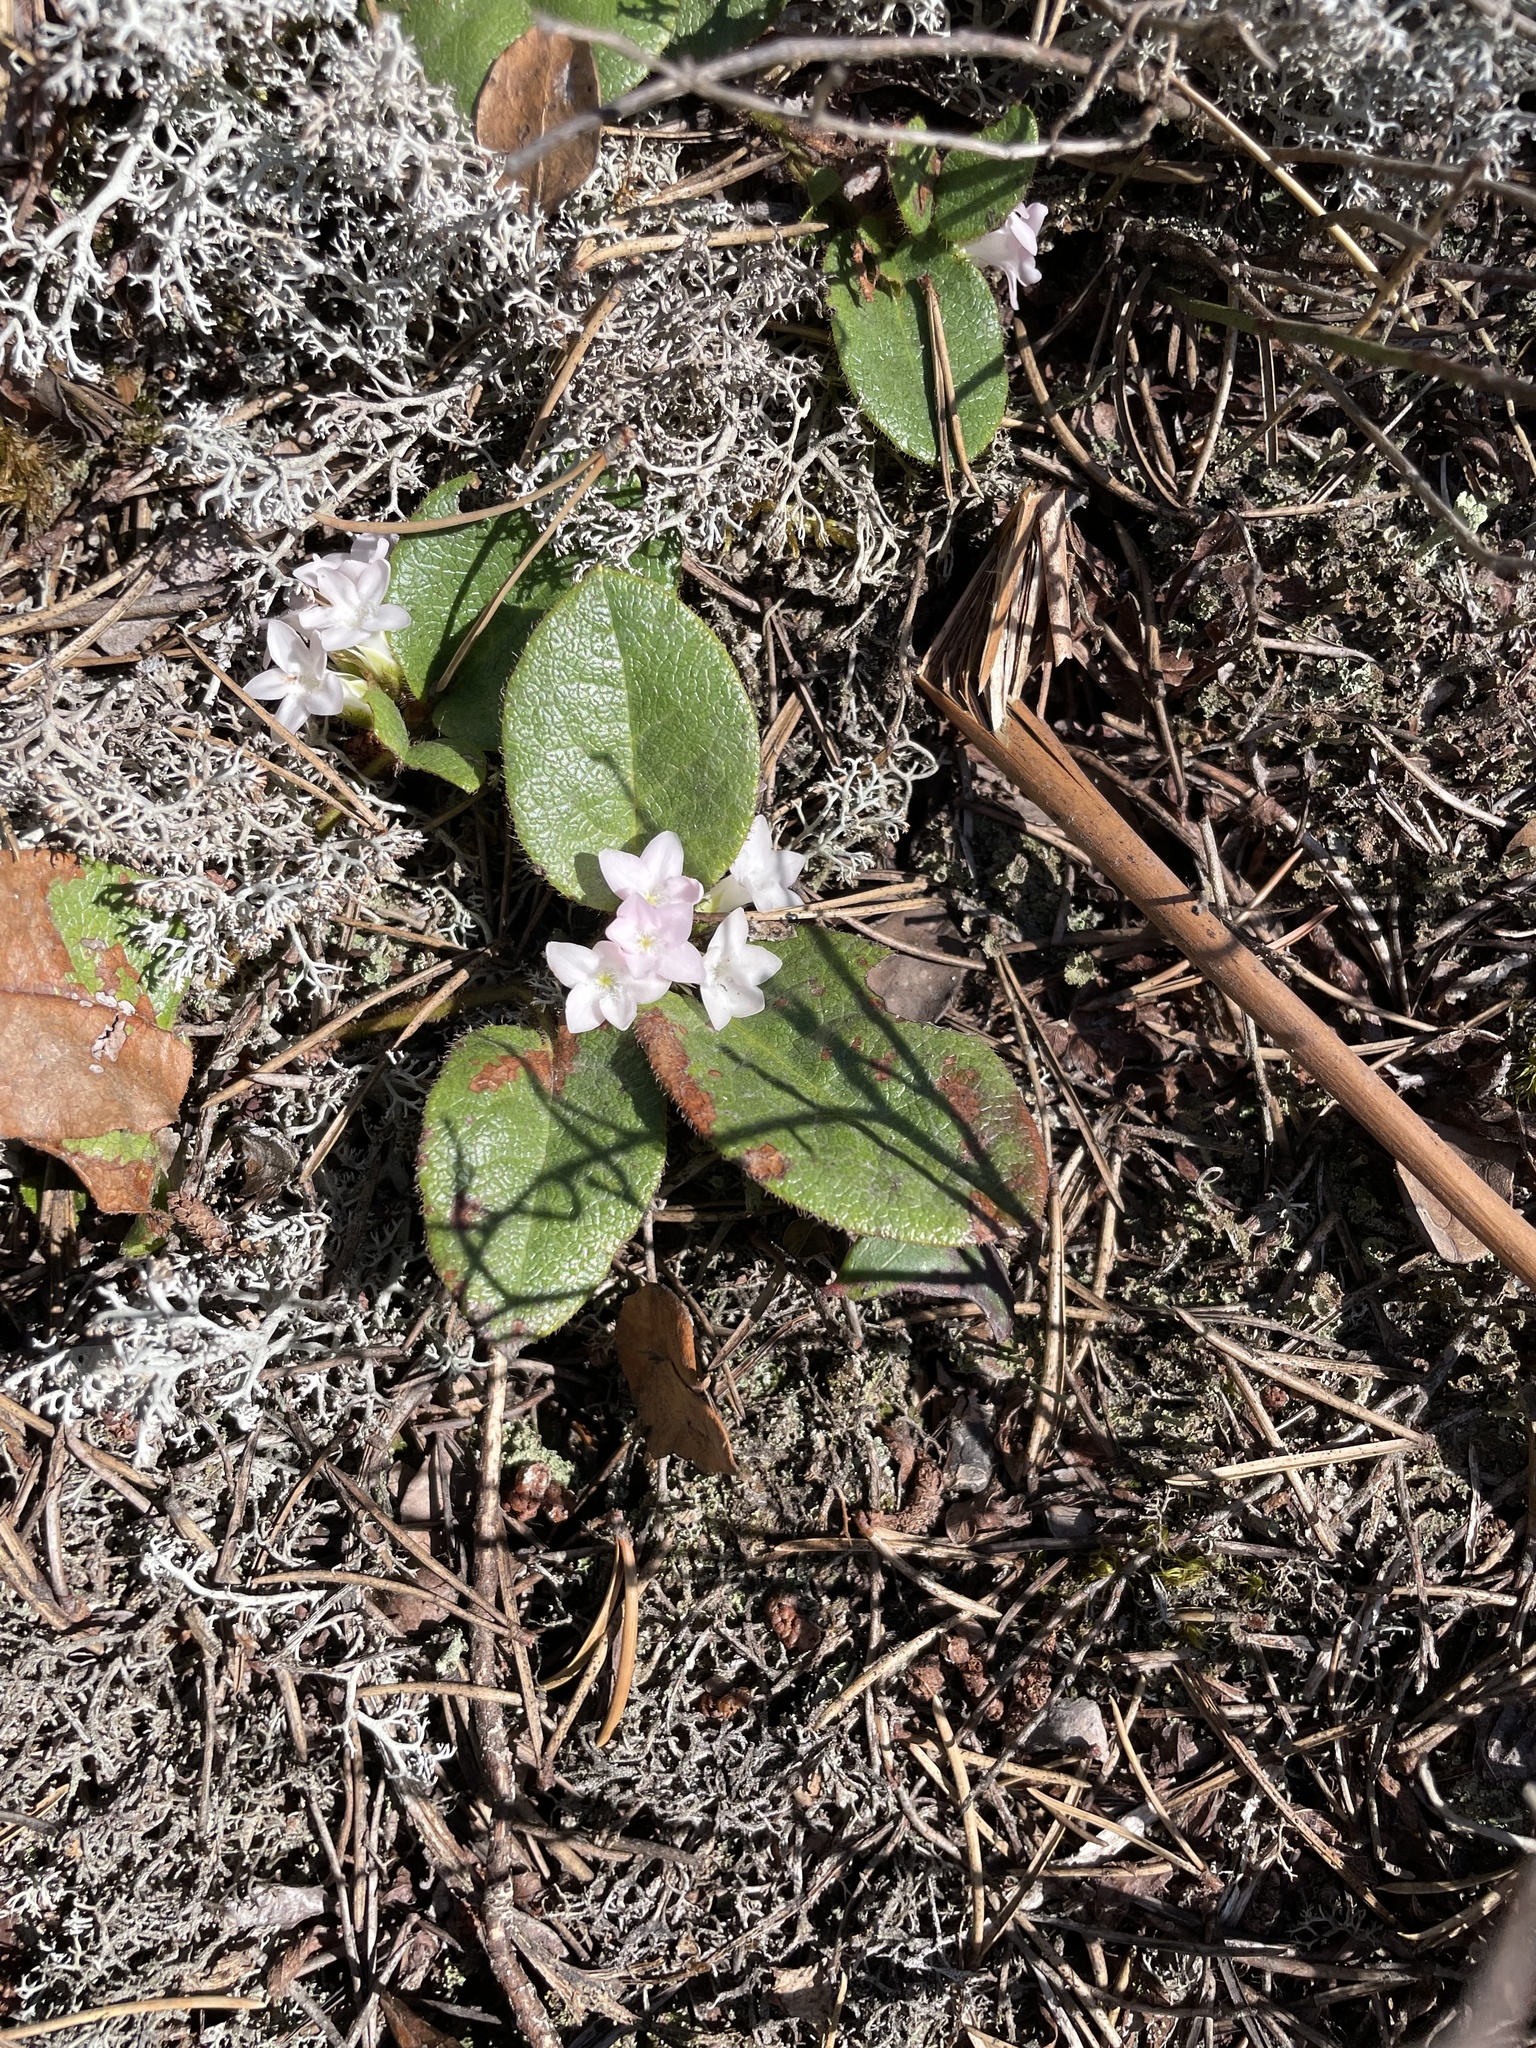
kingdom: Plantae
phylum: Tracheophyta
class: Magnoliopsida
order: Ericales
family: Ericaceae
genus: Epigaea
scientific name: Epigaea repens
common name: Gravelroot
